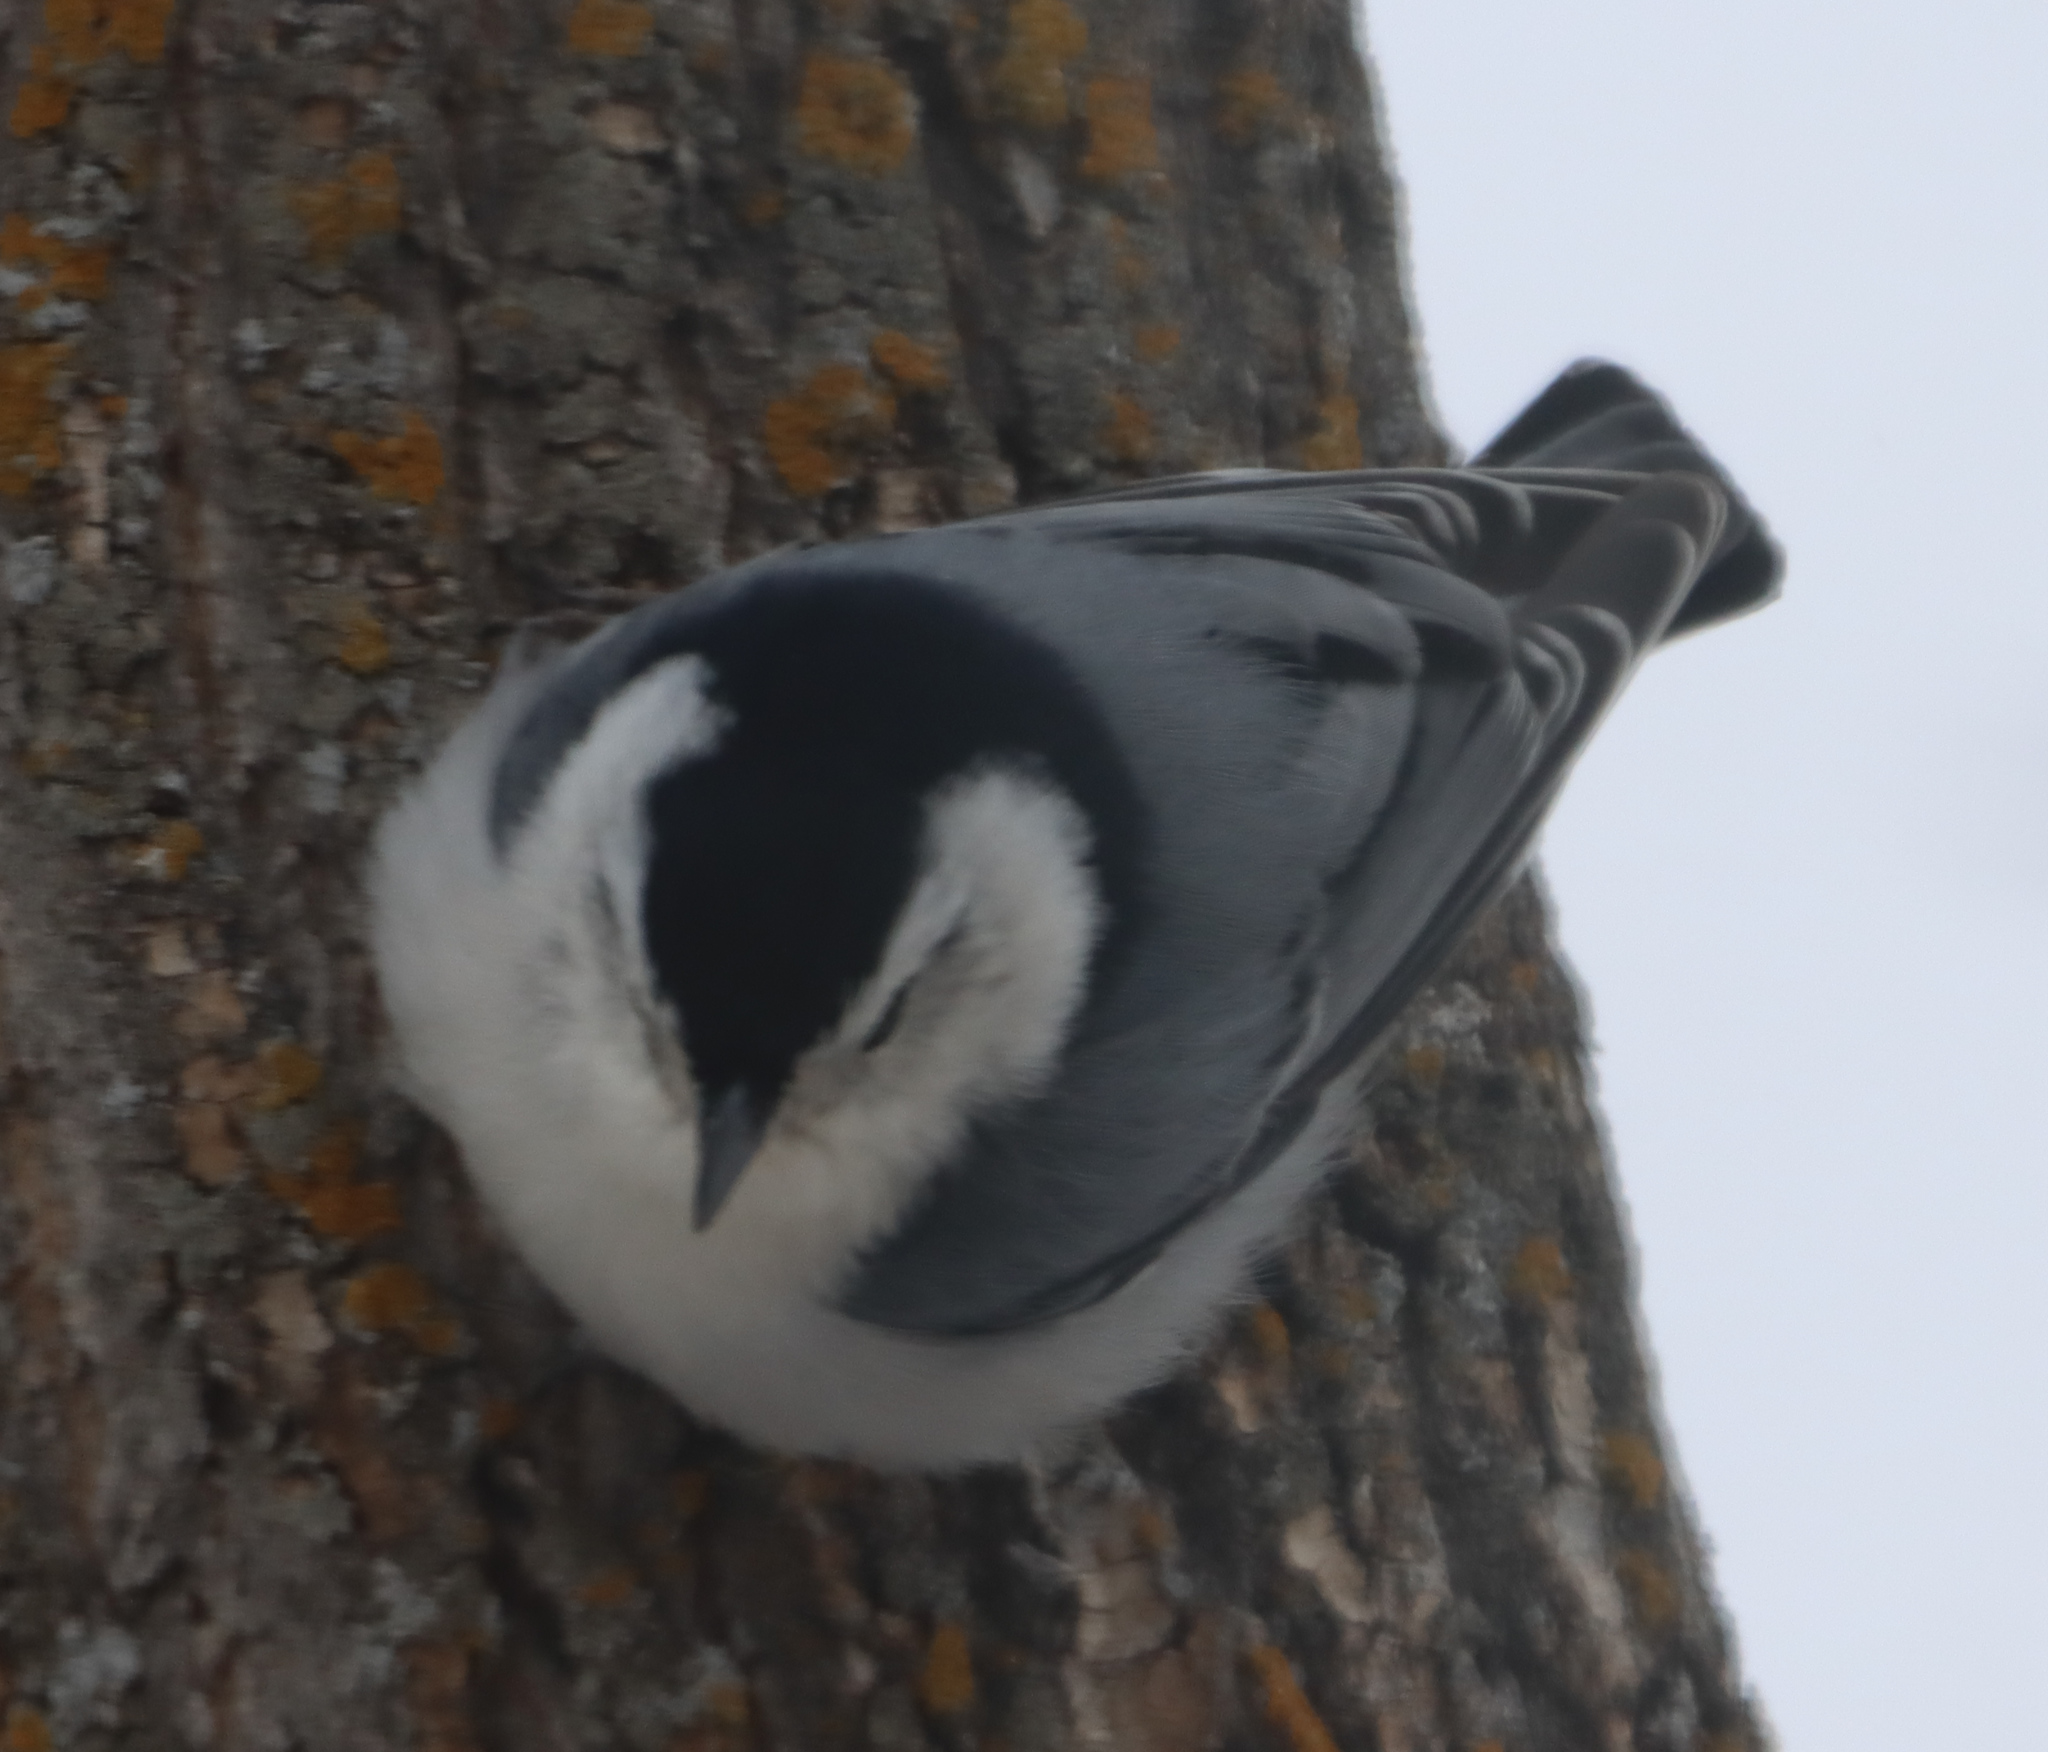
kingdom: Animalia
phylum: Chordata
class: Aves
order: Passeriformes
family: Sittidae
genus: Sitta
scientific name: Sitta carolinensis
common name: White-breasted nuthatch
